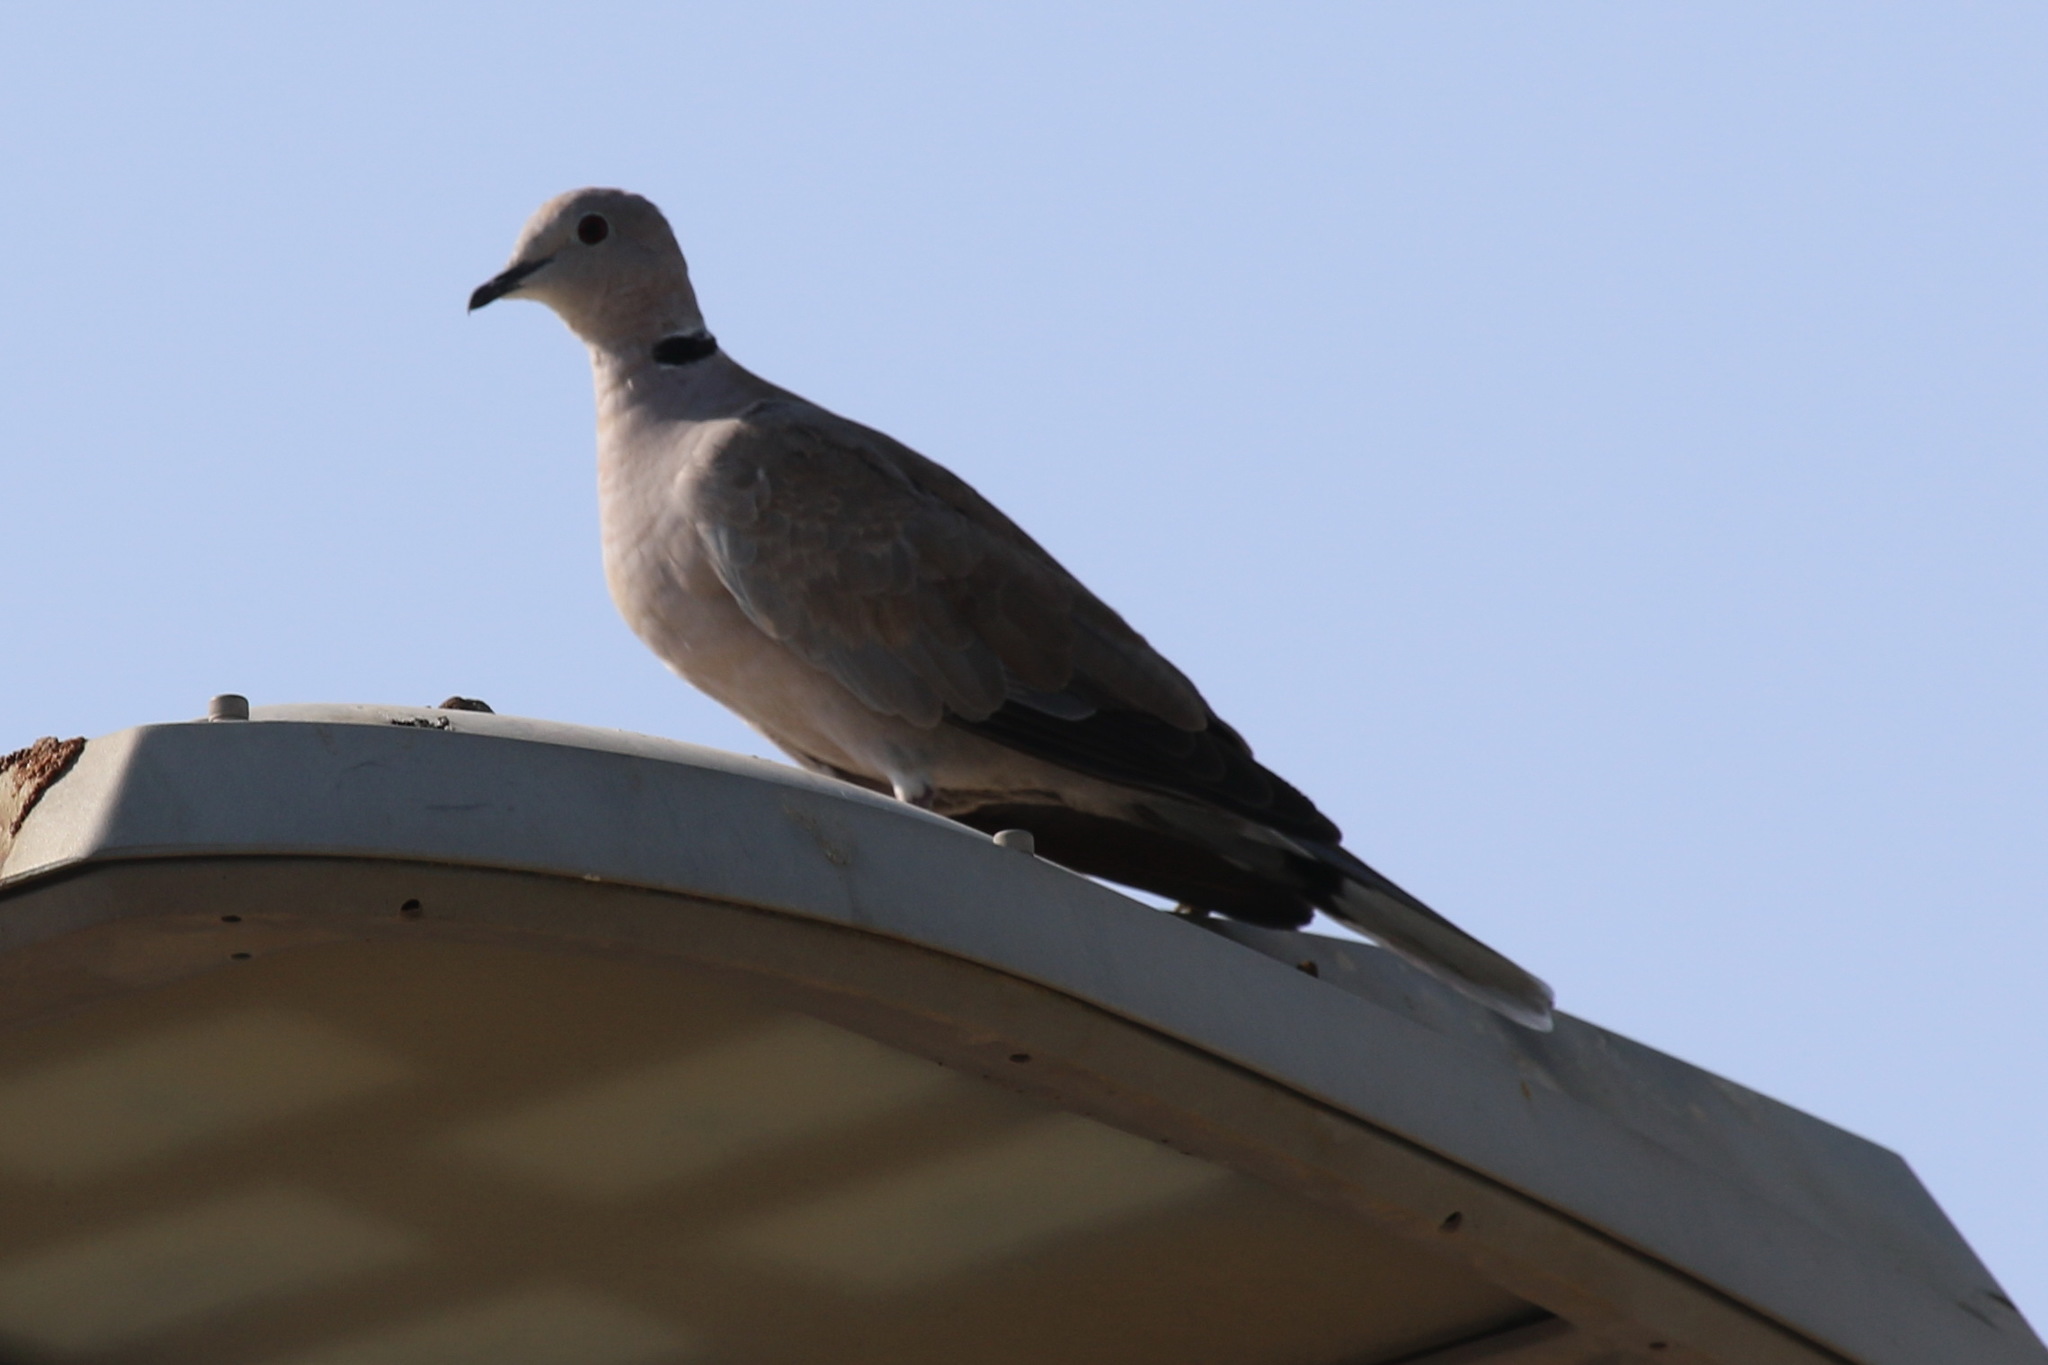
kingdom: Animalia
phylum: Chordata
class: Aves
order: Columbiformes
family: Columbidae
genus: Streptopelia
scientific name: Streptopelia decaocto
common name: Eurasian collared dove
